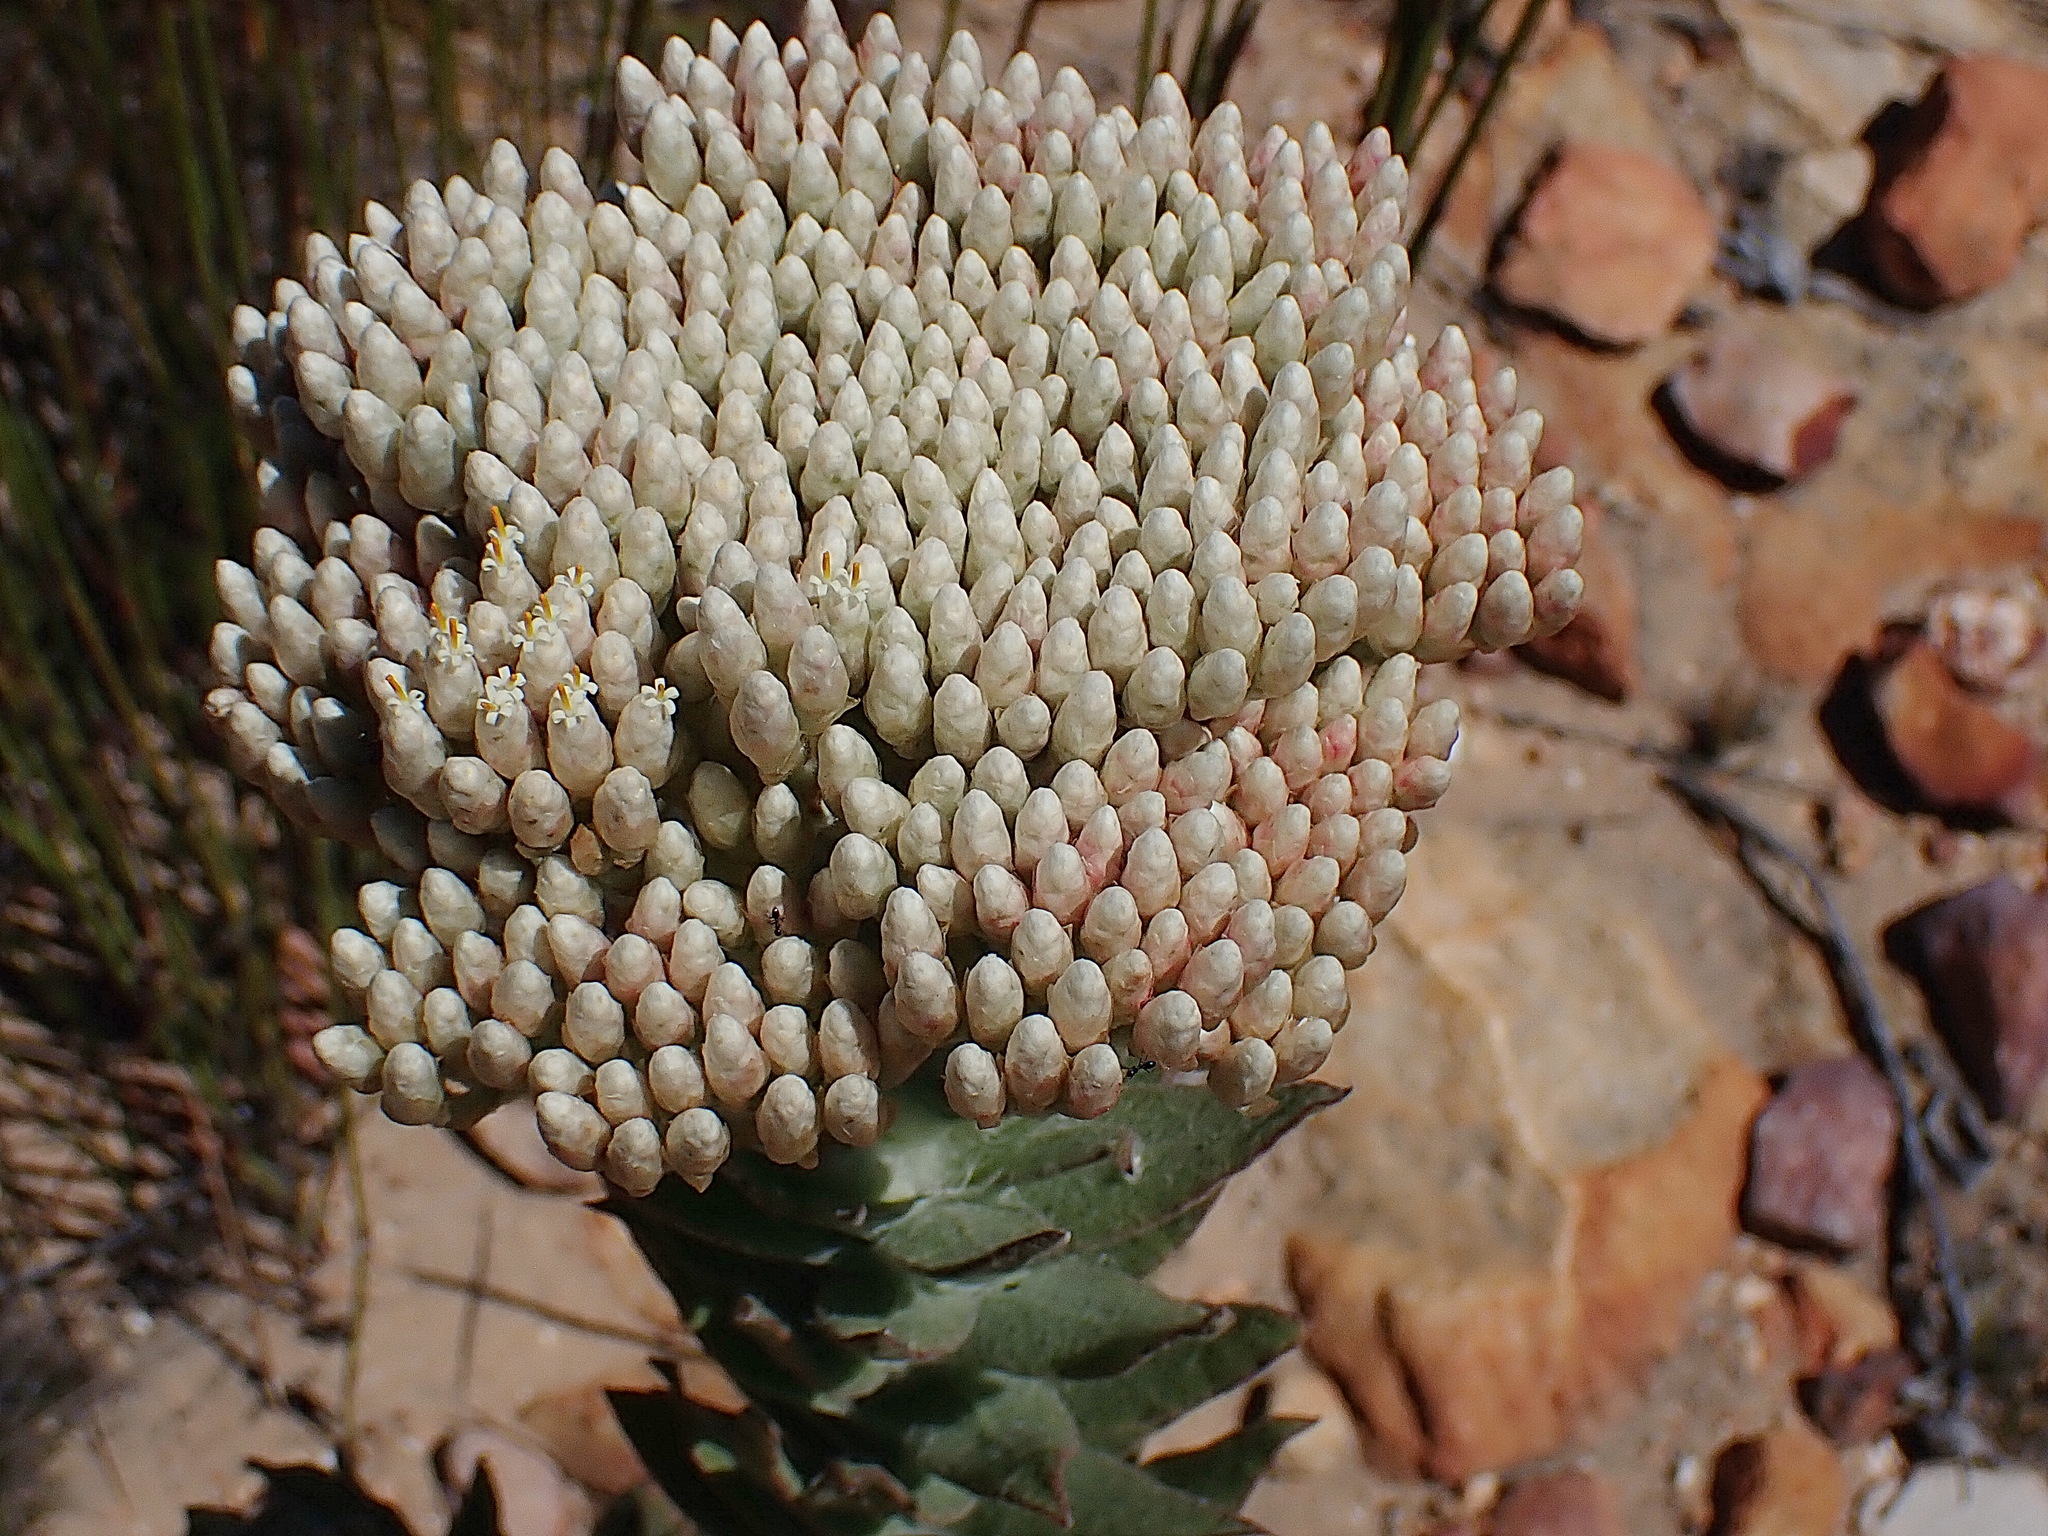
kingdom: Plantae
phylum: Tracheophyta
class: Magnoliopsida
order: Asterales
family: Asteraceae
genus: Syncarpha
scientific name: Syncarpha milleflora
